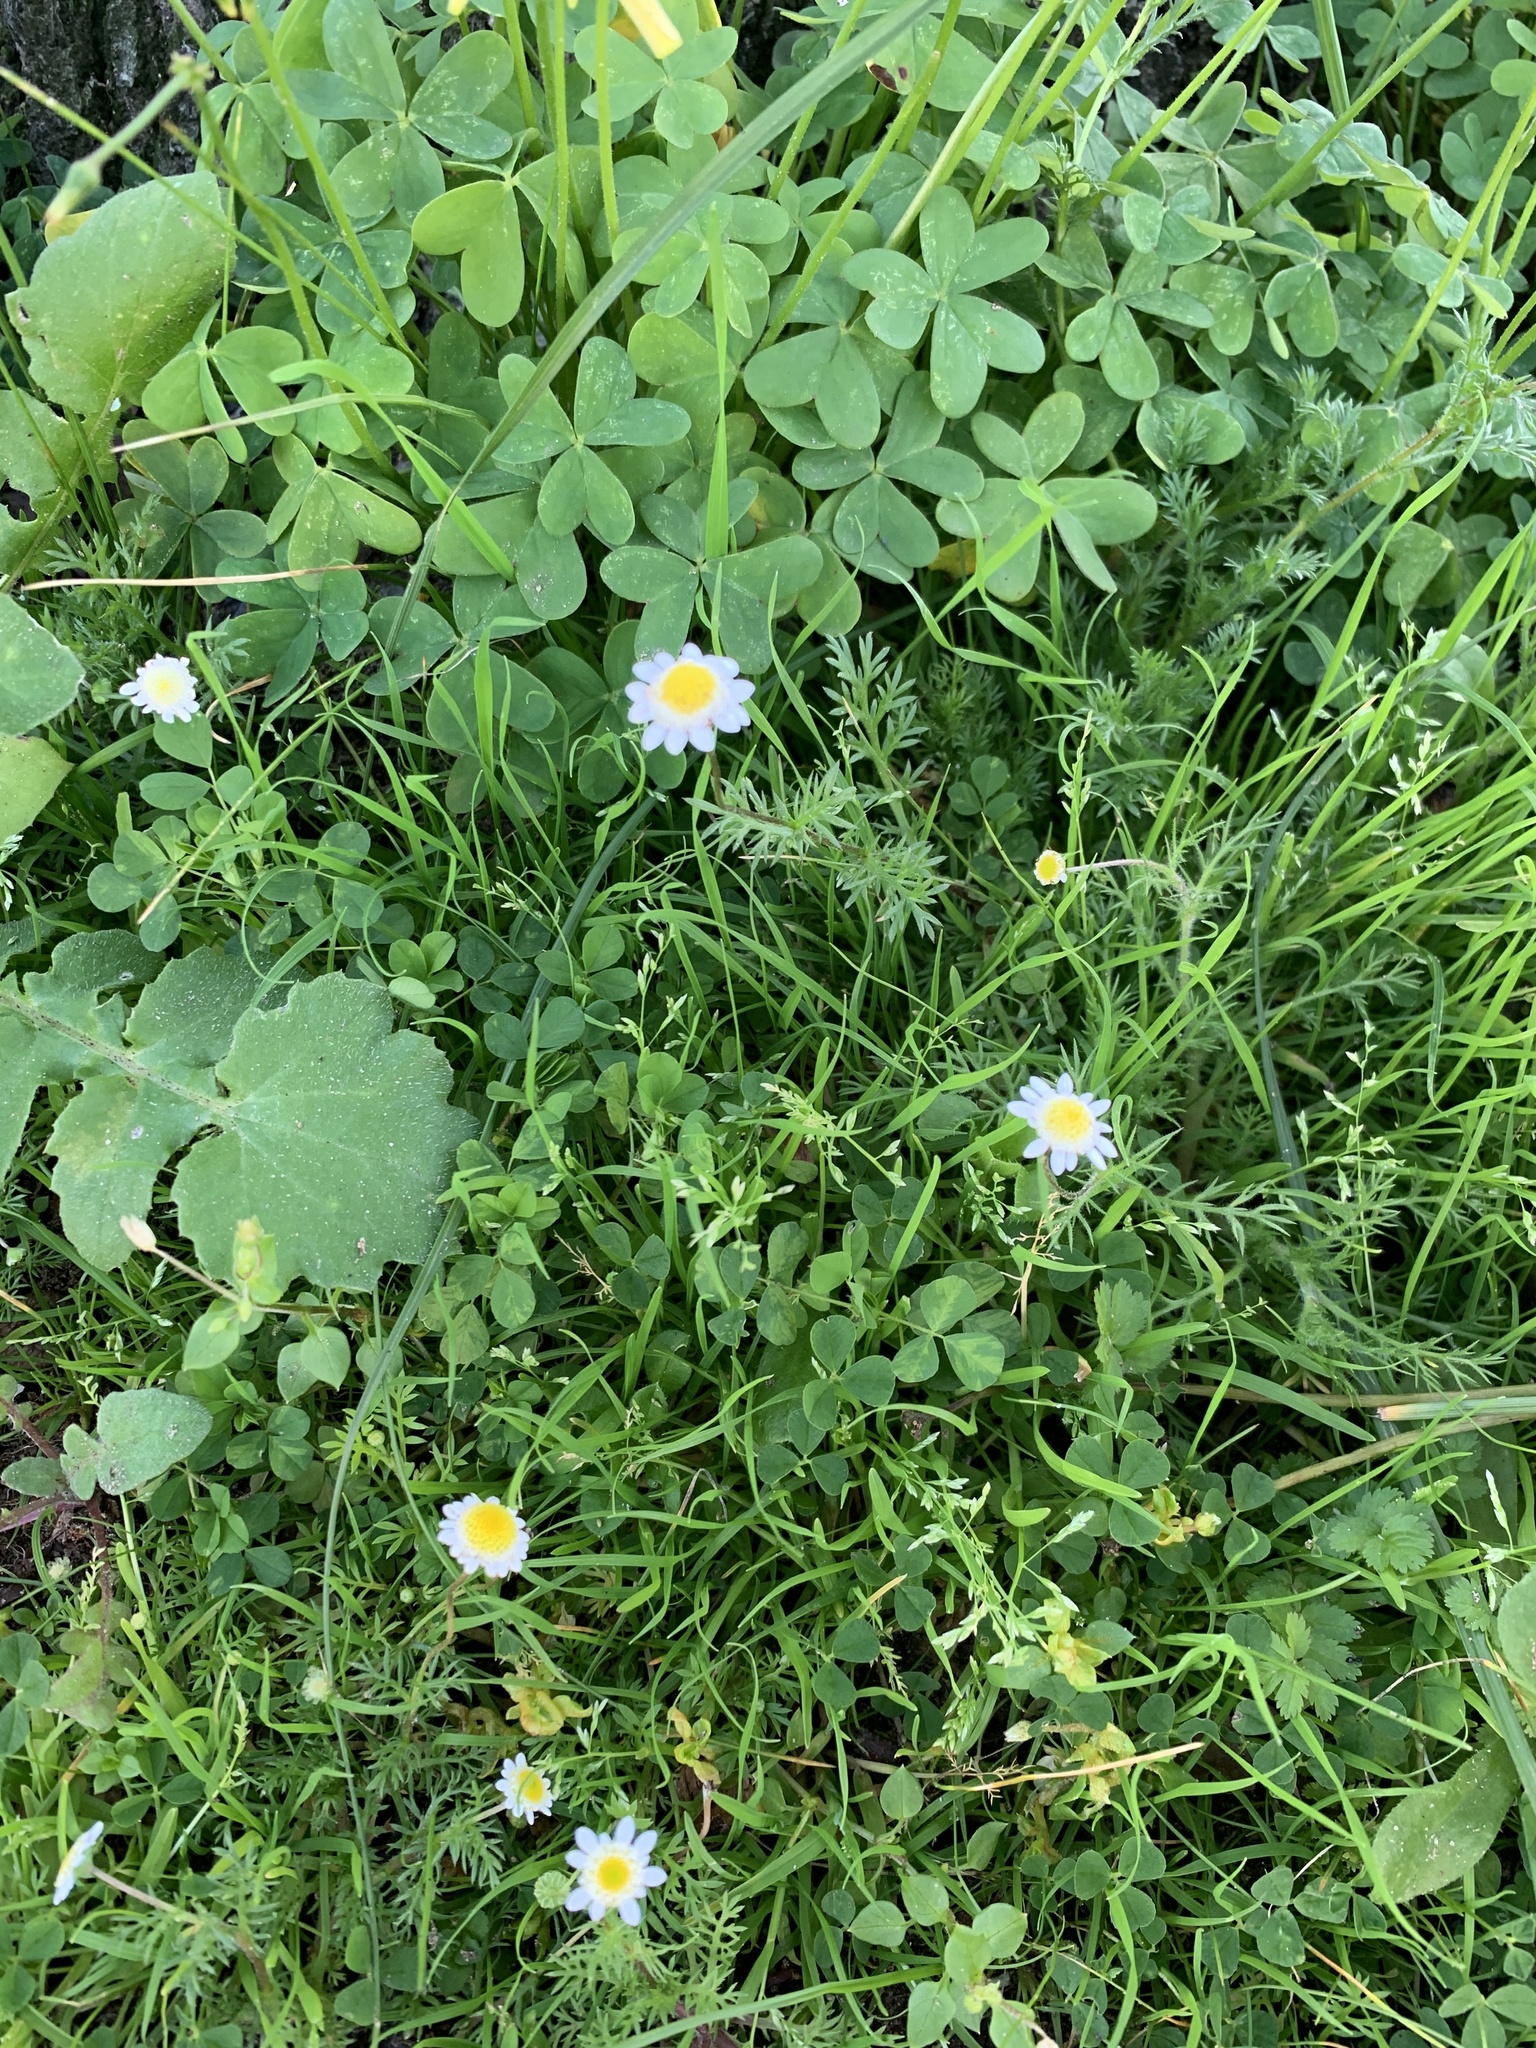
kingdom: Plantae
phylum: Tracheophyta
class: Magnoliopsida
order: Asterales
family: Asteraceae
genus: Cotula
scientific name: Cotula turbinata
